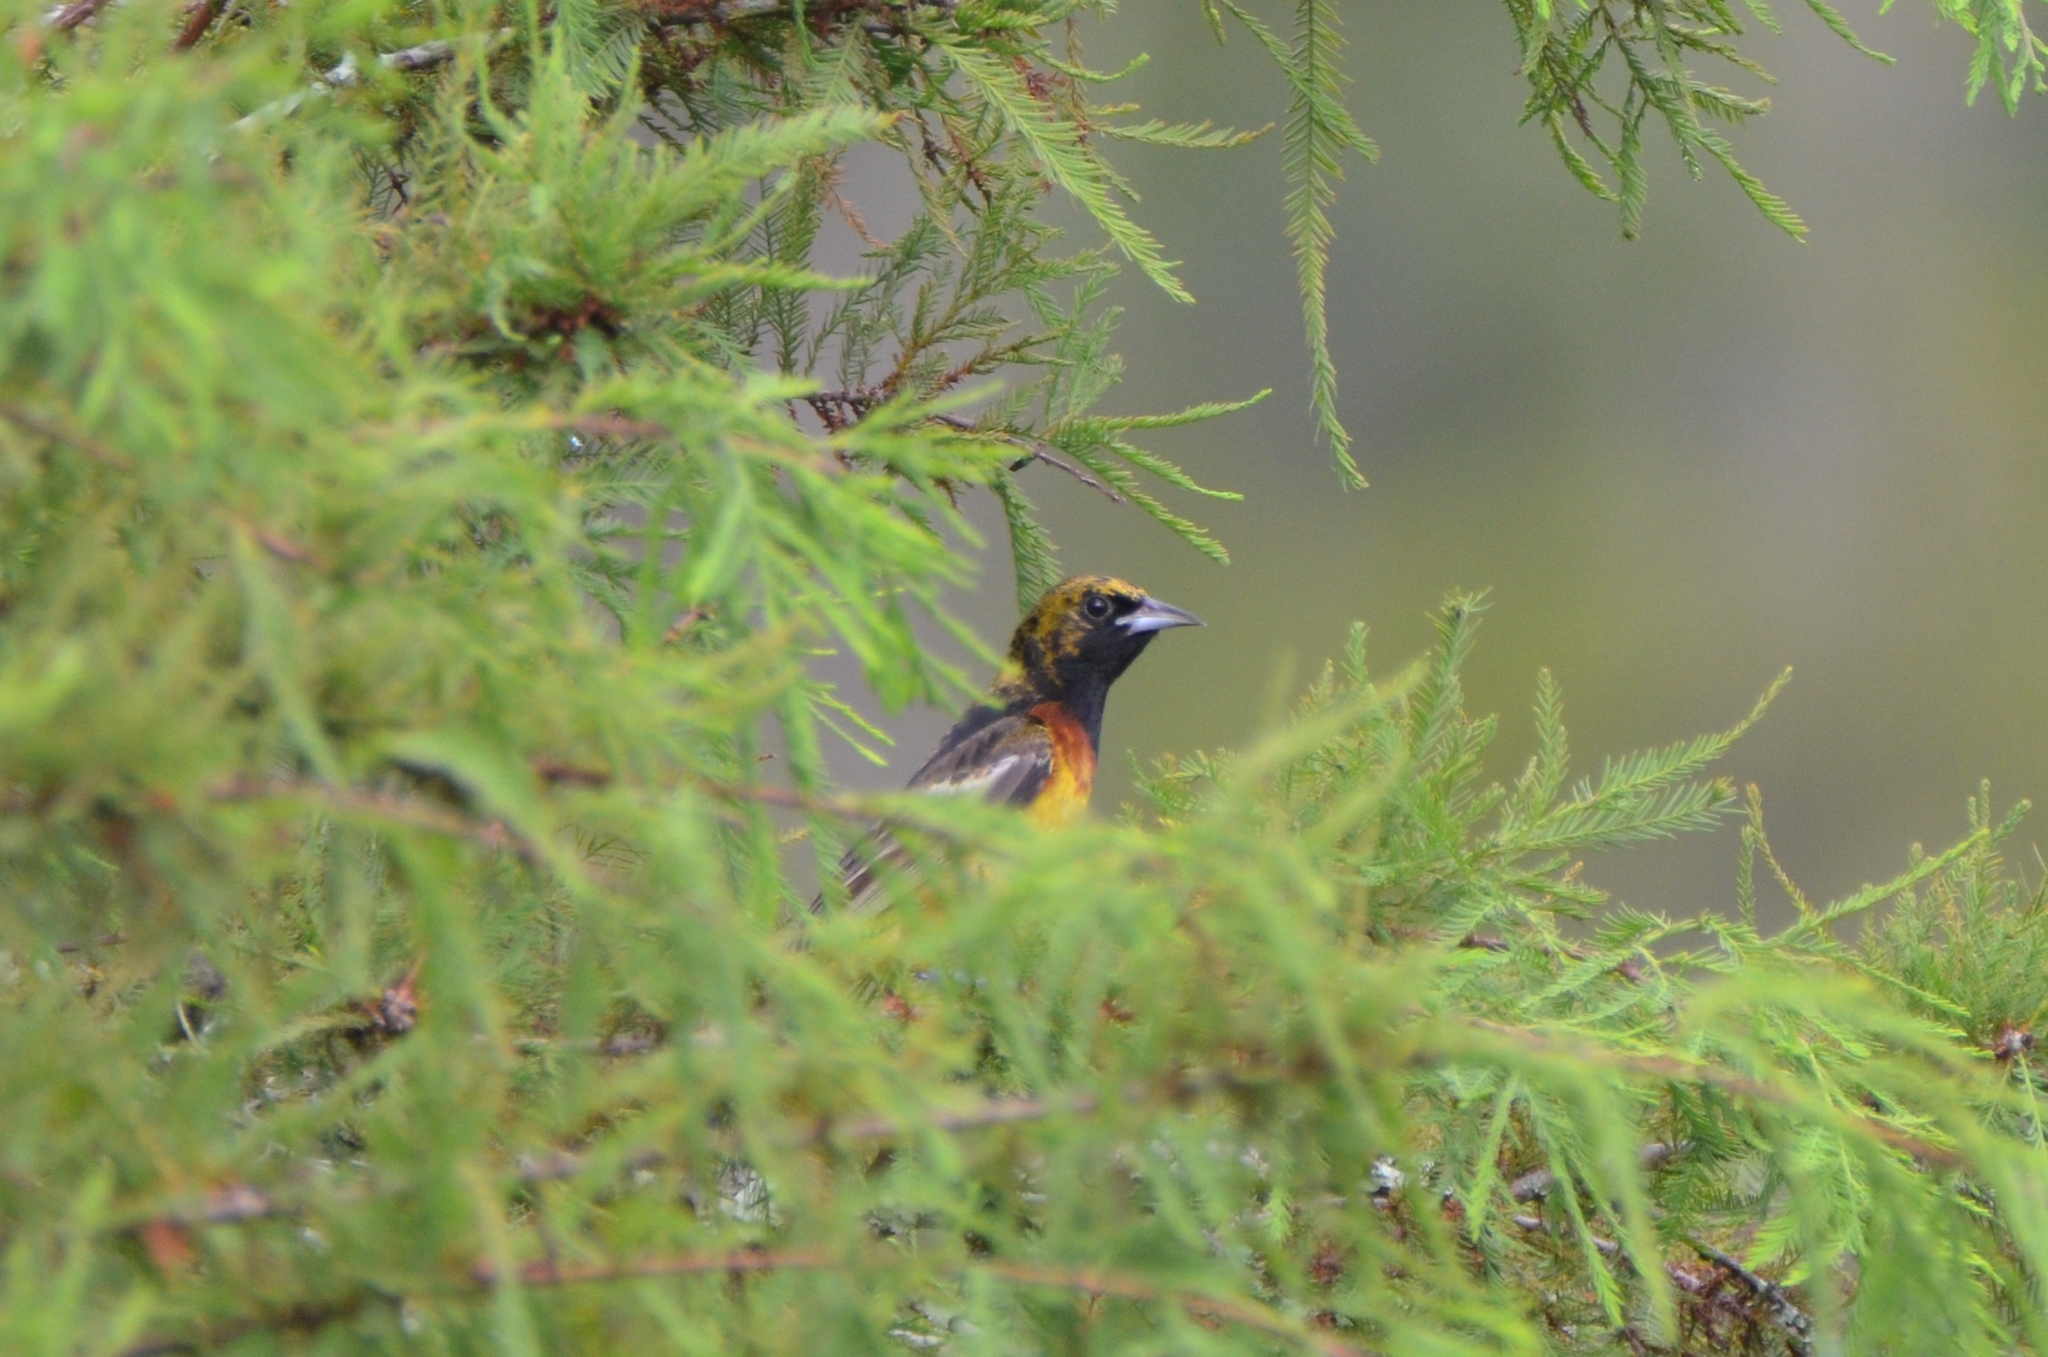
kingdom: Animalia
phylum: Chordata
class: Aves
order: Passeriformes
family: Icteridae
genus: Icterus
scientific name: Icterus spurius
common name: Orchard oriole
